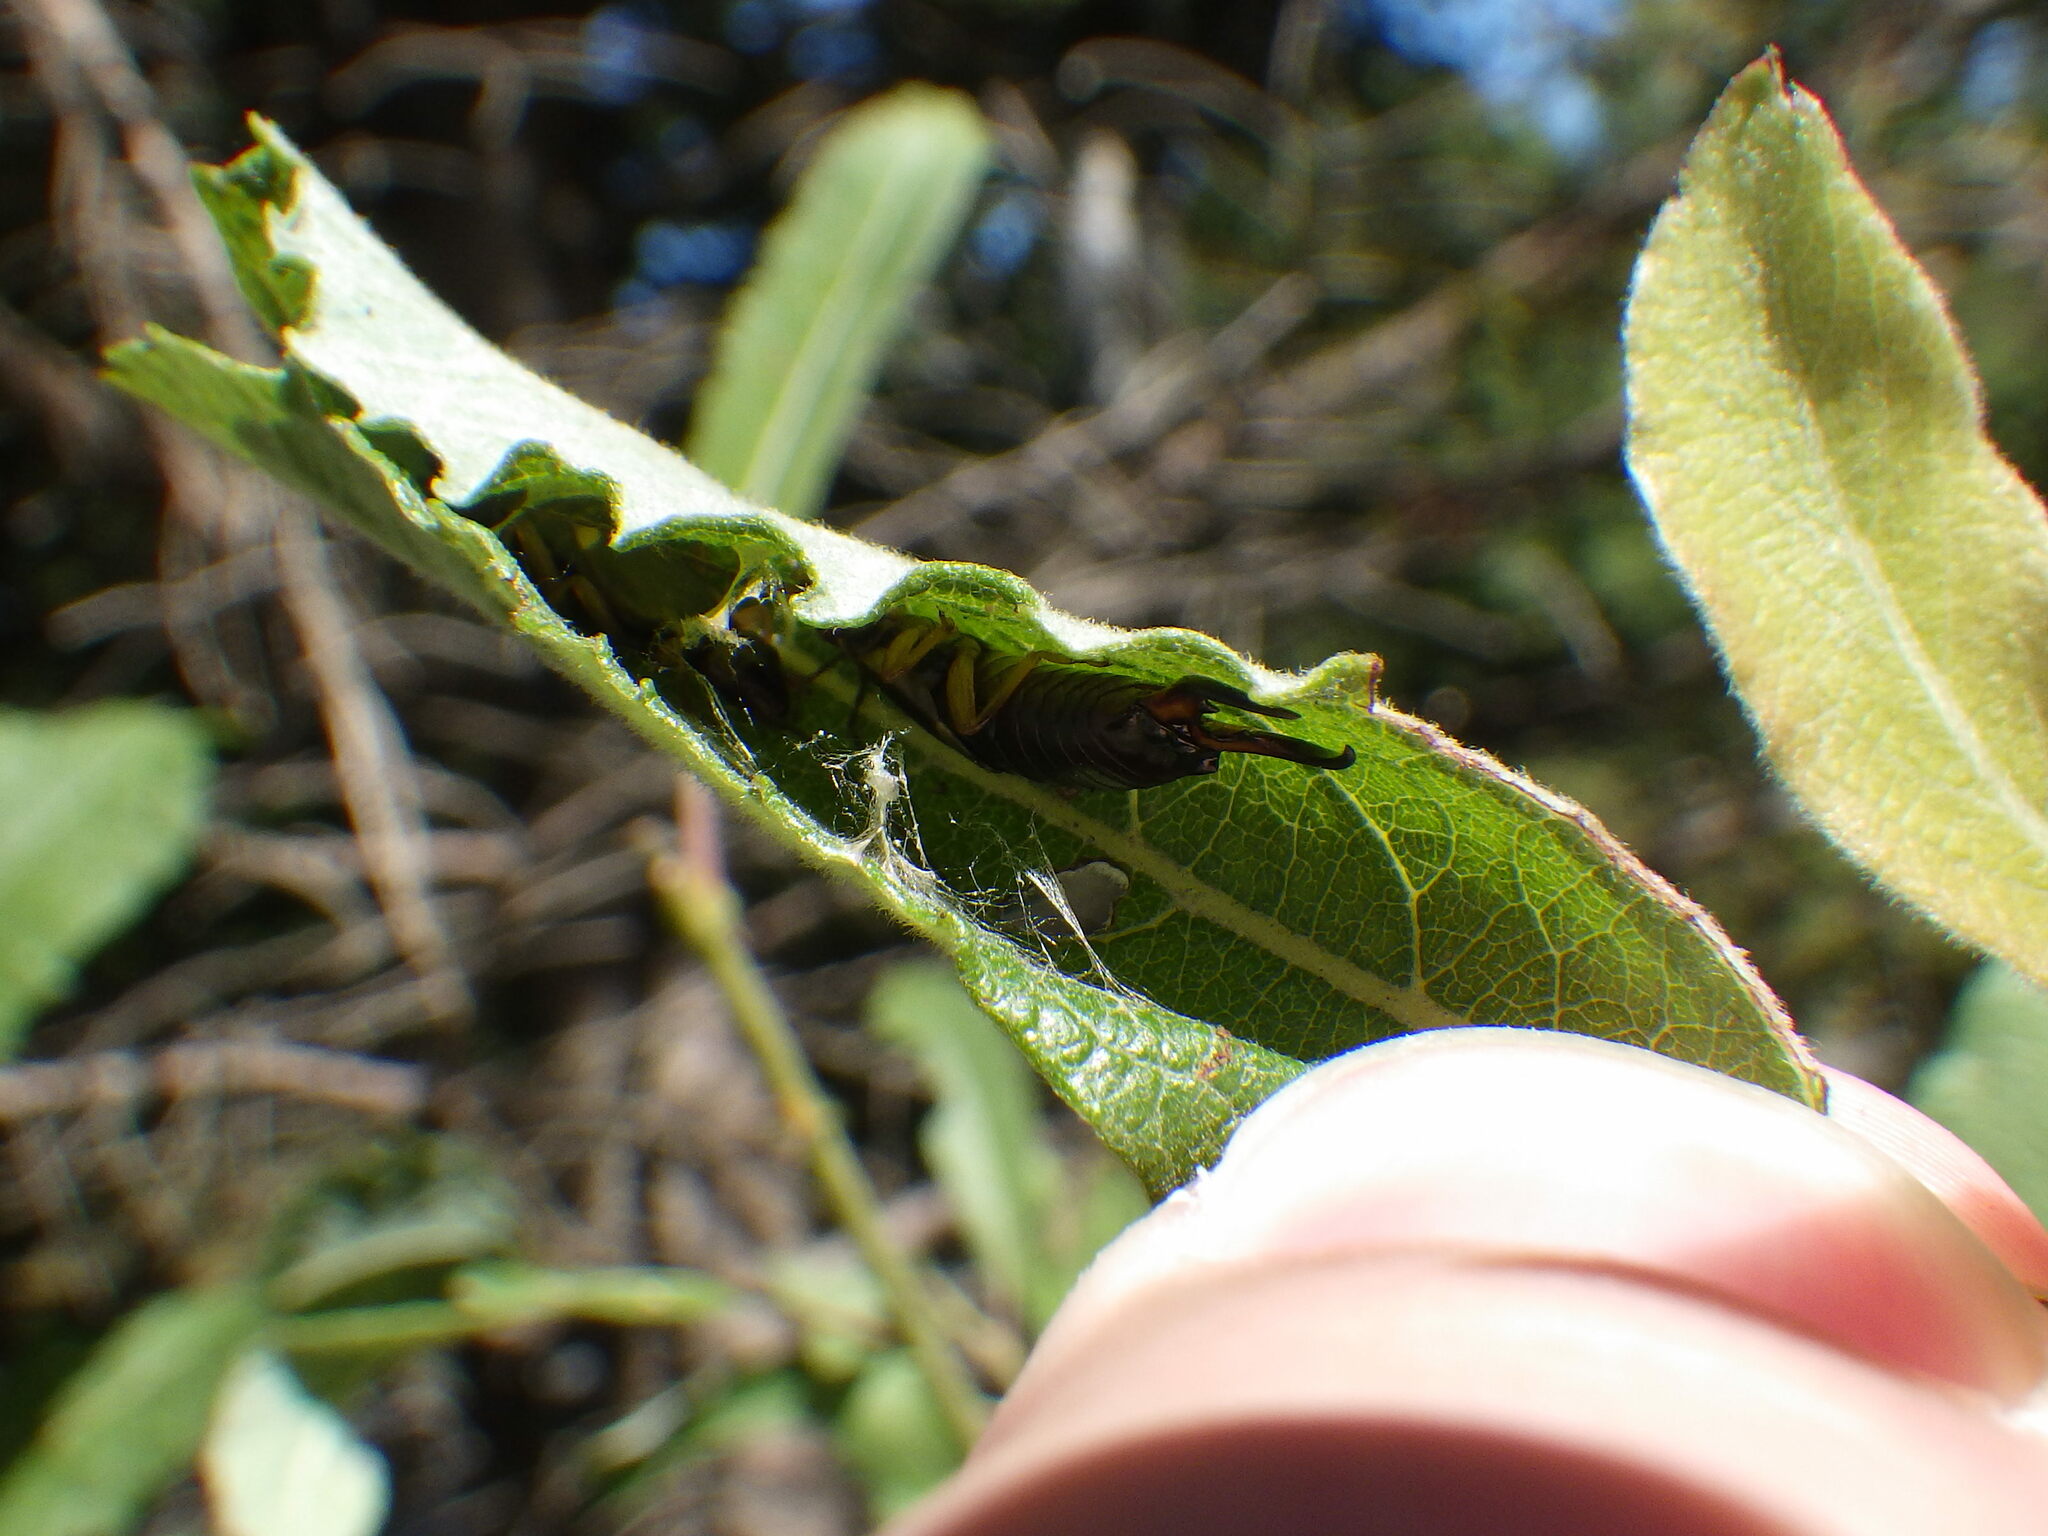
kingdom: Animalia
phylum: Arthropoda
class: Insecta
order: Dermaptera
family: Forficulidae
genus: Forficula
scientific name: Forficula
